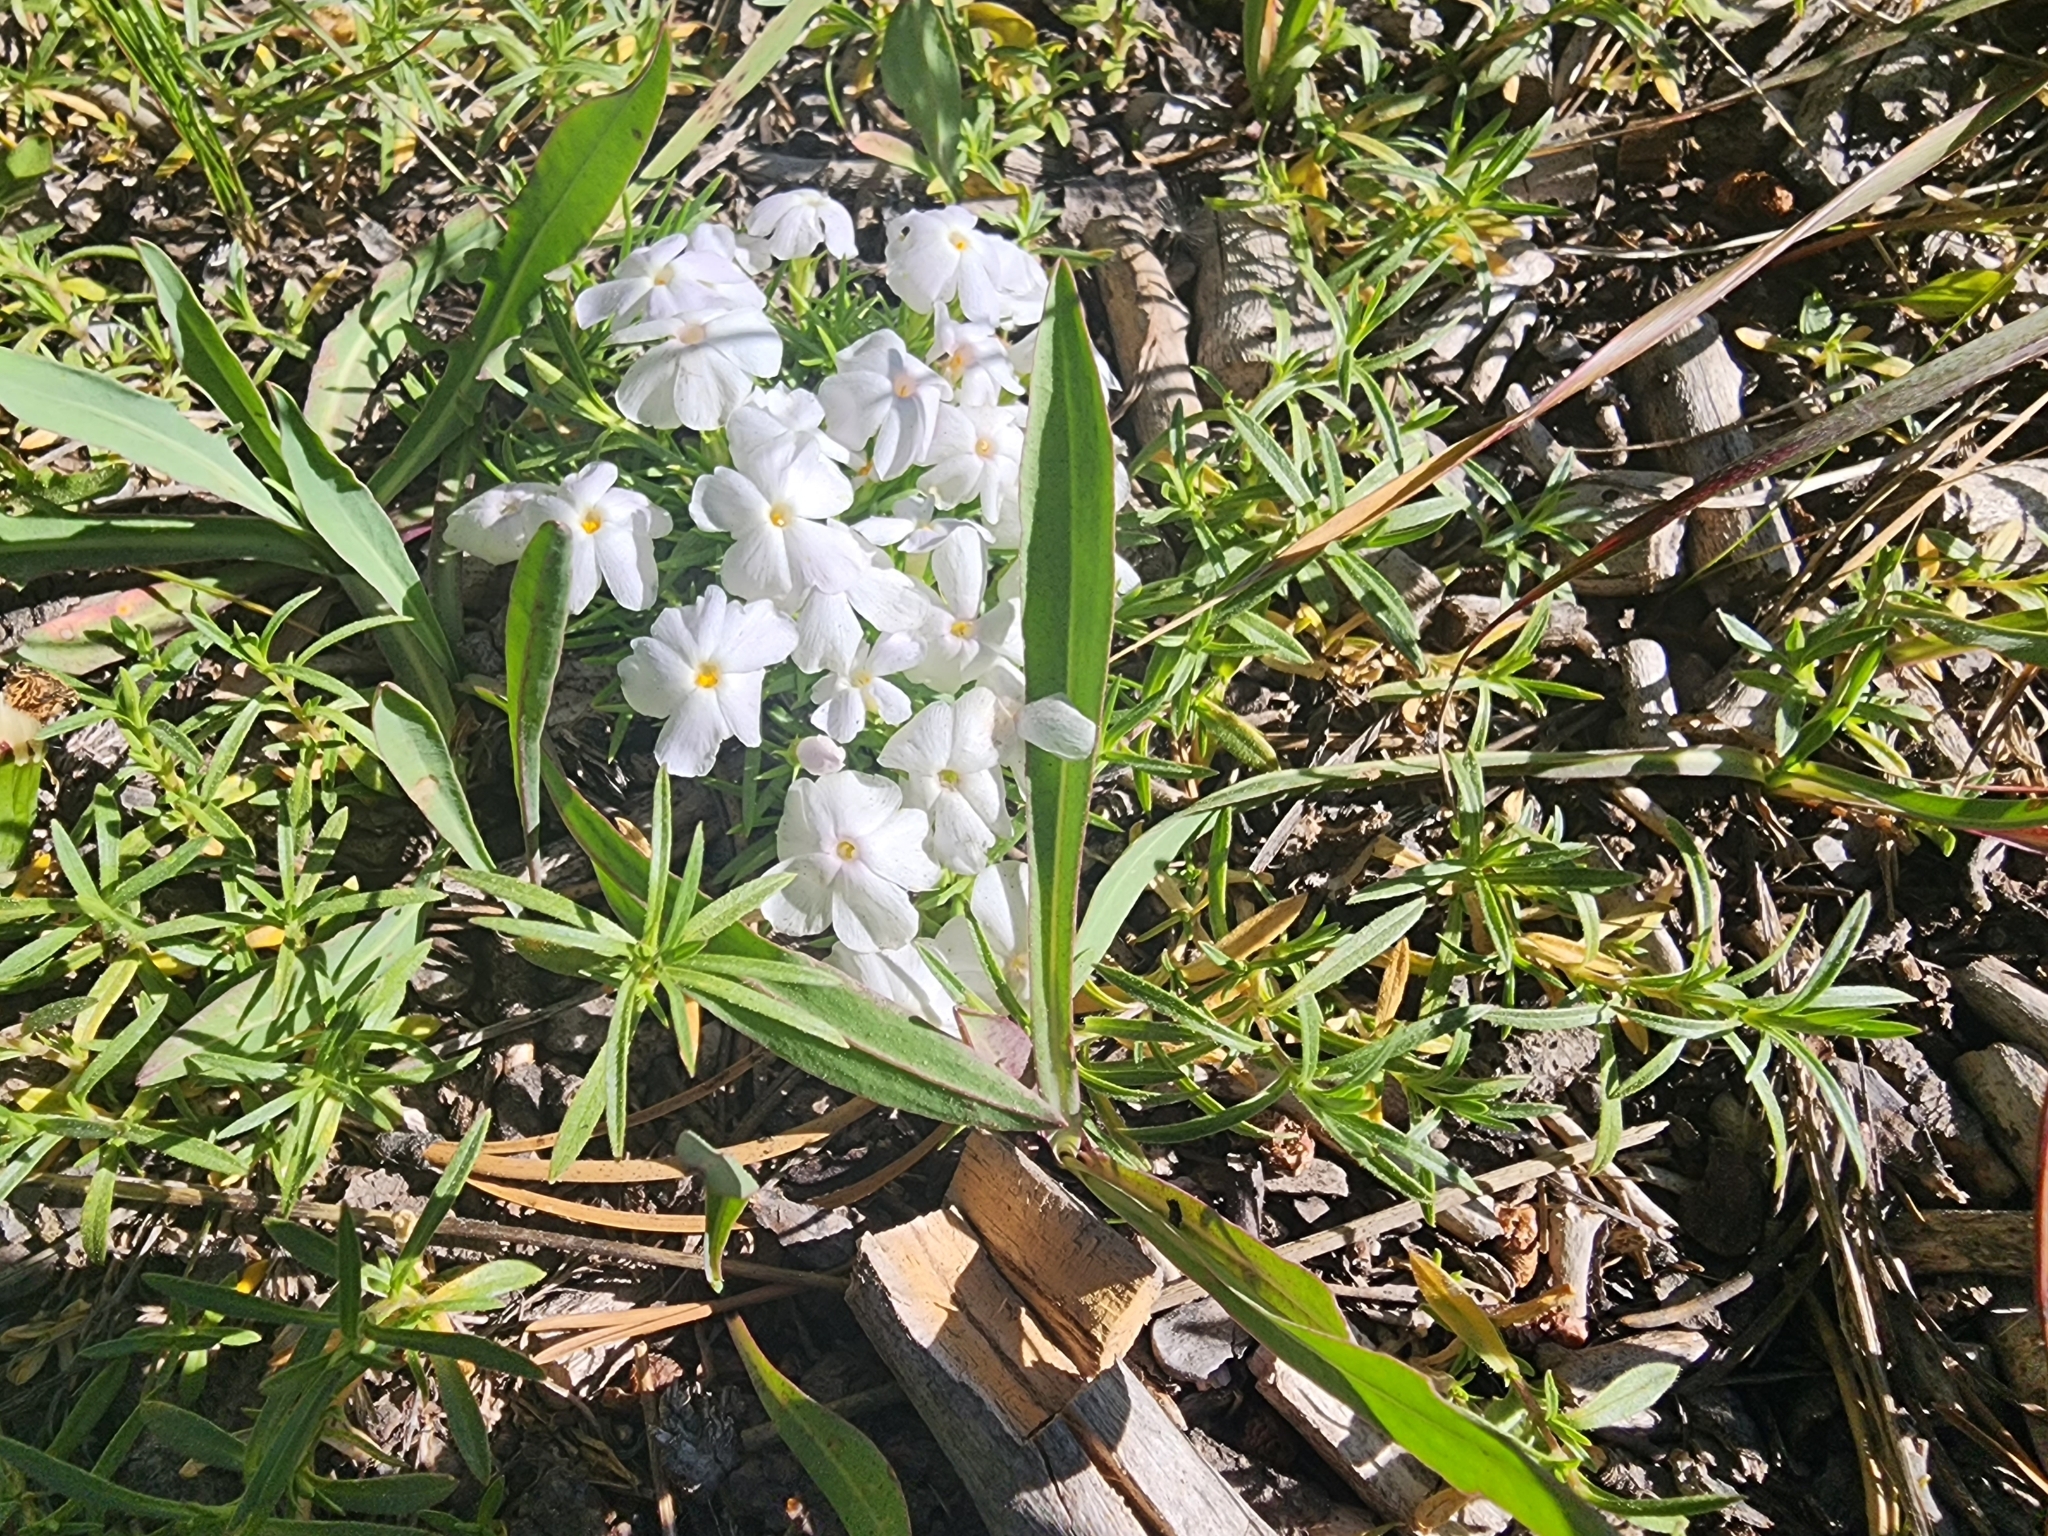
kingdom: Plantae
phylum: Tracheophyta
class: Magnoliopsida
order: Ericales
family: Polemoniaceae
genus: Phlox
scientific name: Phlox multiflora
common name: Rocky mountain phlox
